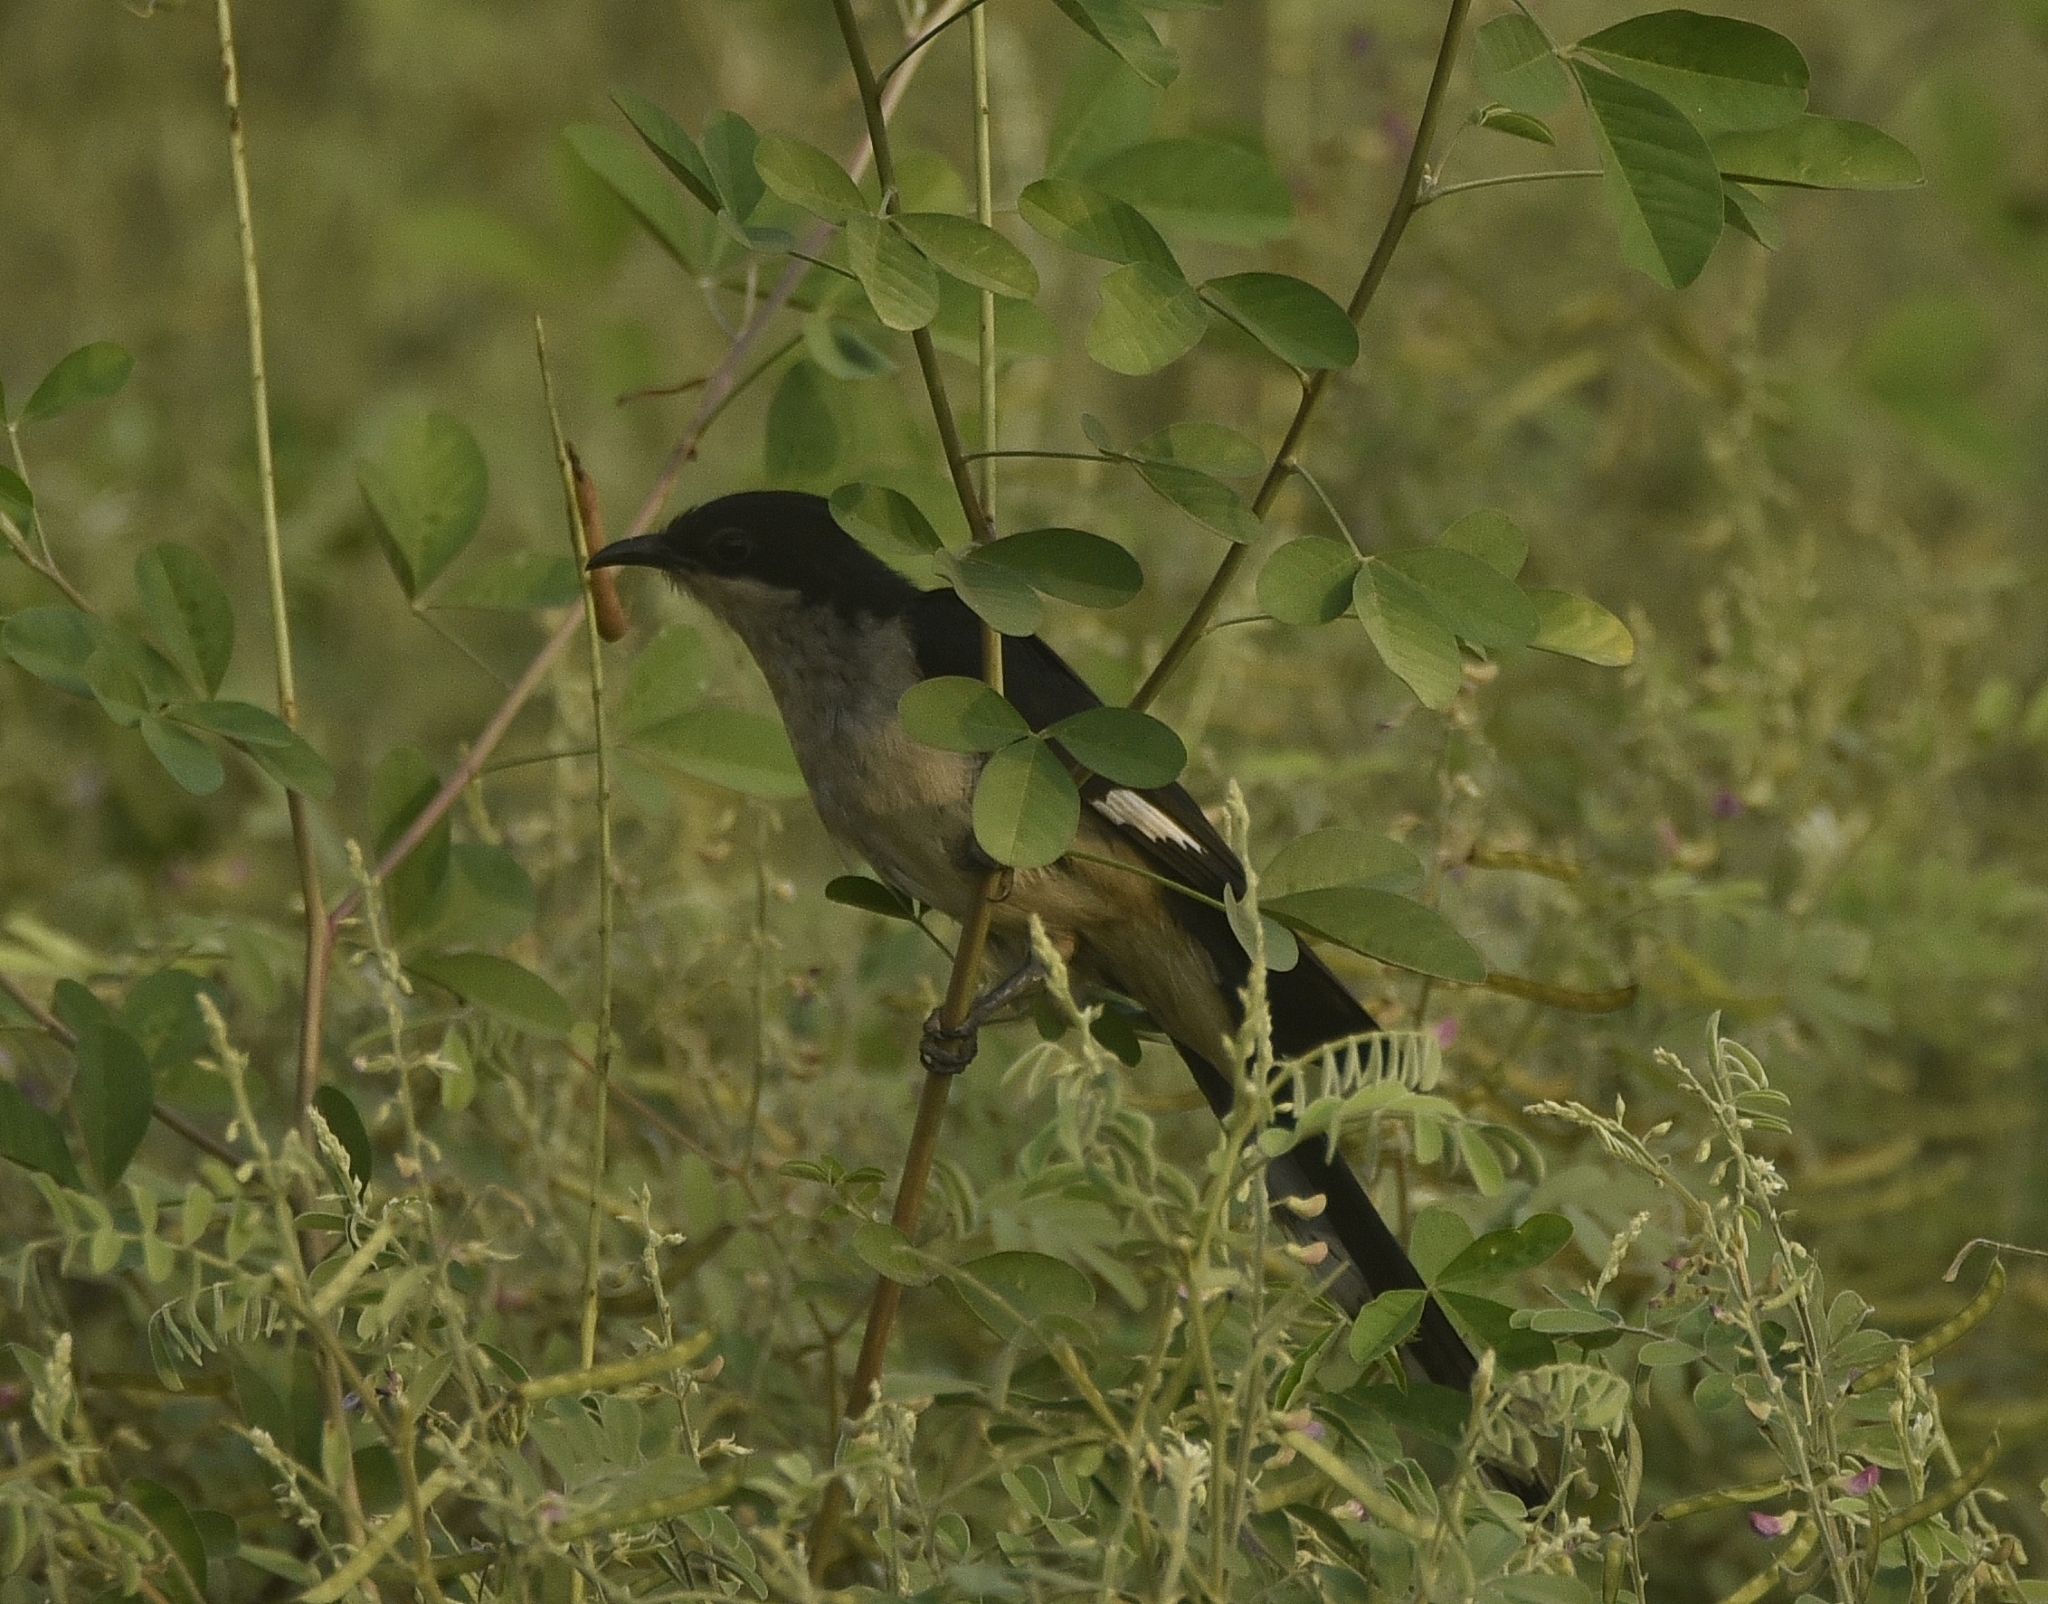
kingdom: Animalia
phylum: Chordata
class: Aves
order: Cuculiformes
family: Cuculidae
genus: Clamator
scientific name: Clamator jacobinus
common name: Jacobin cuckoo
